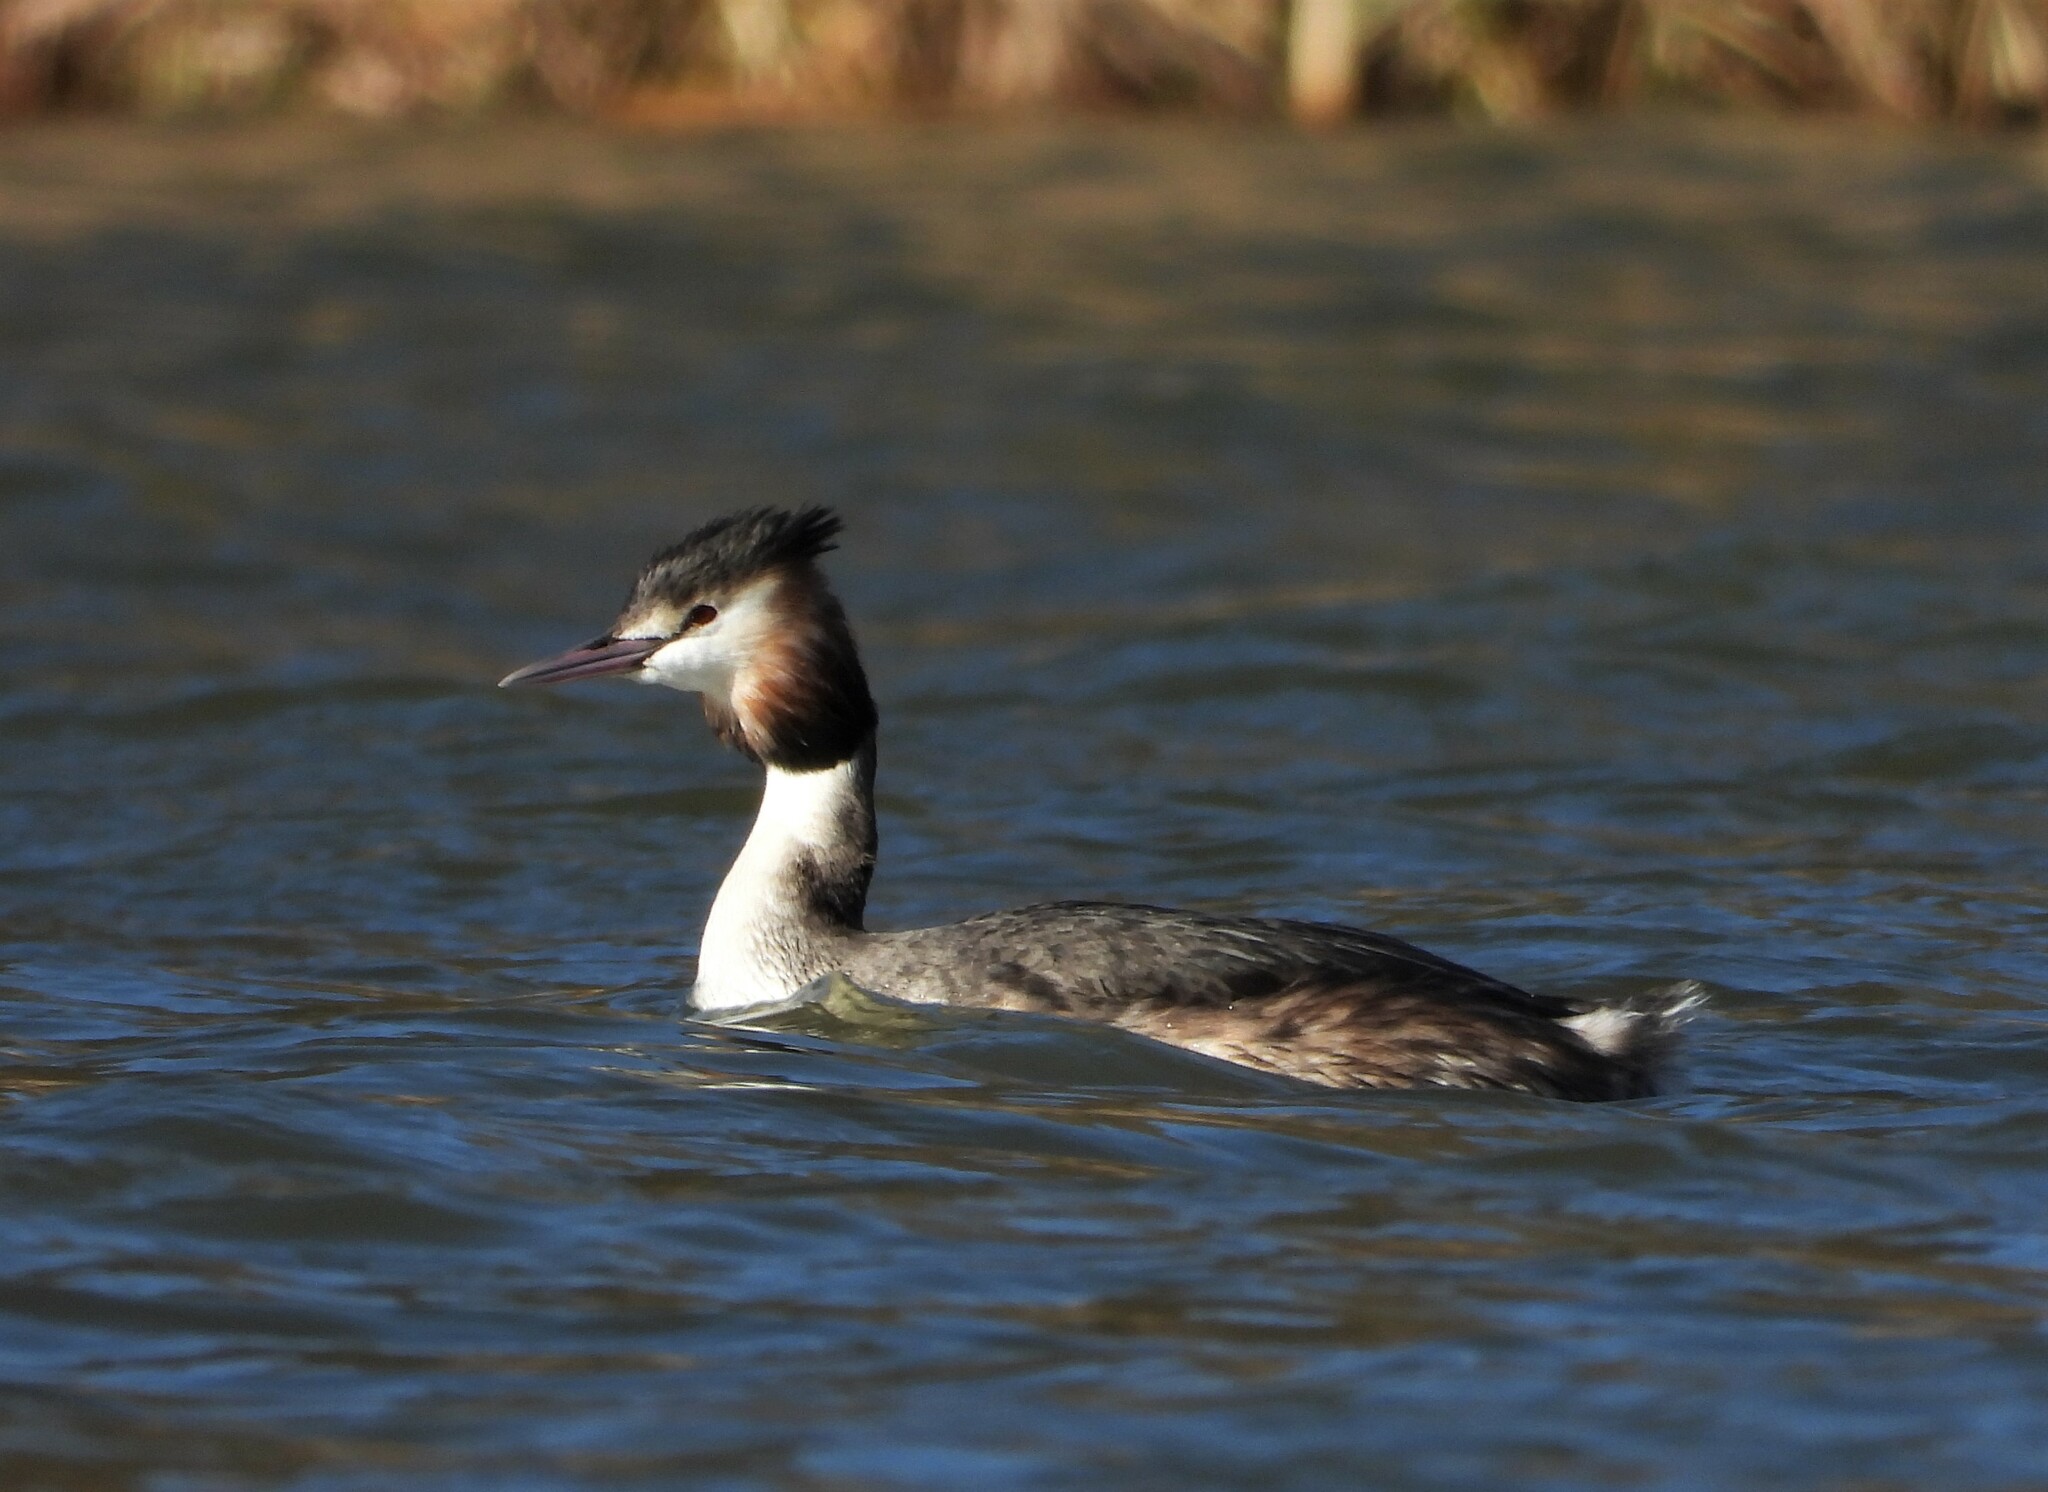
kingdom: Animalia
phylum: Chordata
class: Aves
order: Podicipediformes
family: Podicipedidae
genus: Podiceps
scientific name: Podiceps cristatus
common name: Great crested grebe
